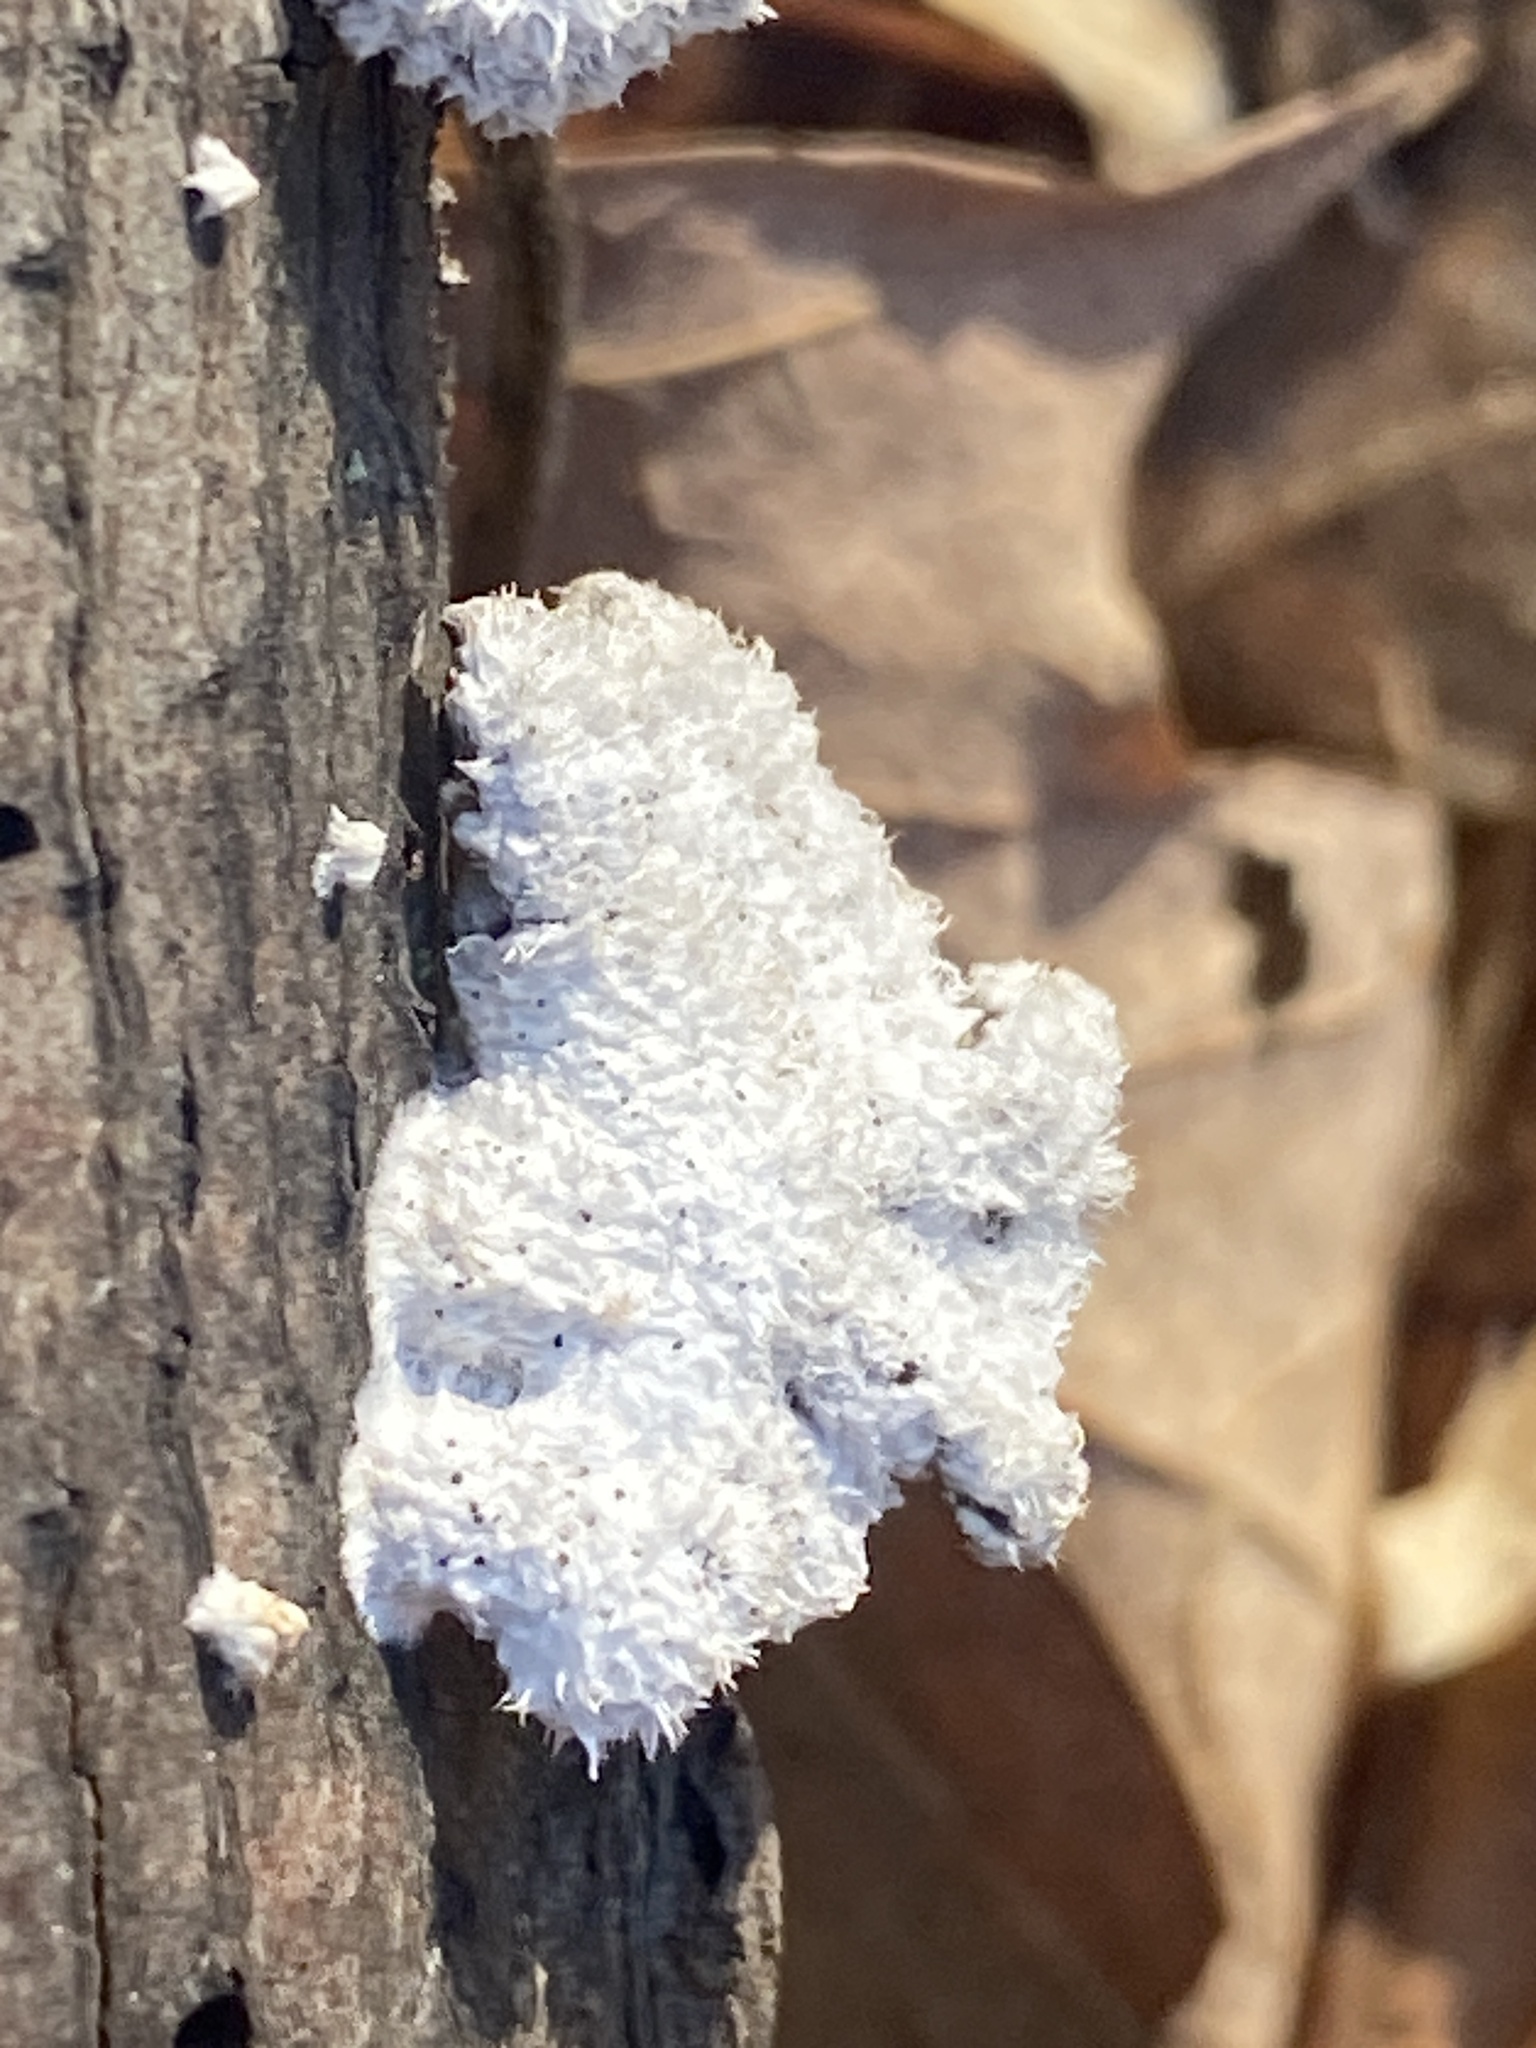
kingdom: Fungi
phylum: Basidiomycota
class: Agaricomycetes
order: Agaricales
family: Schizophyllaceae
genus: Schizophyllum
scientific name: Schizophyllum commune
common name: Common porecrust
